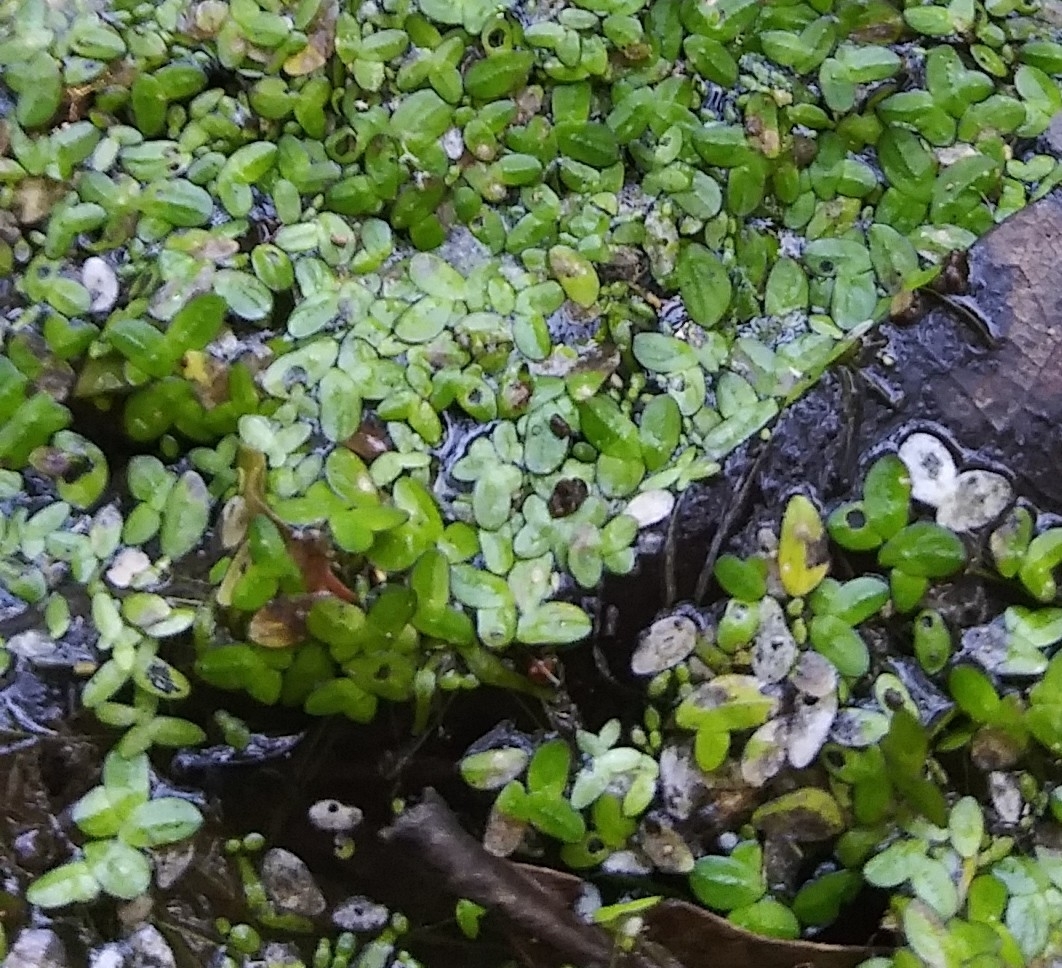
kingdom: Plantae
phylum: Tracheophyta
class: Liliopsida
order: Alismatales
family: Araceae
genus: Spirodela
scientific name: Spirodela punctata
